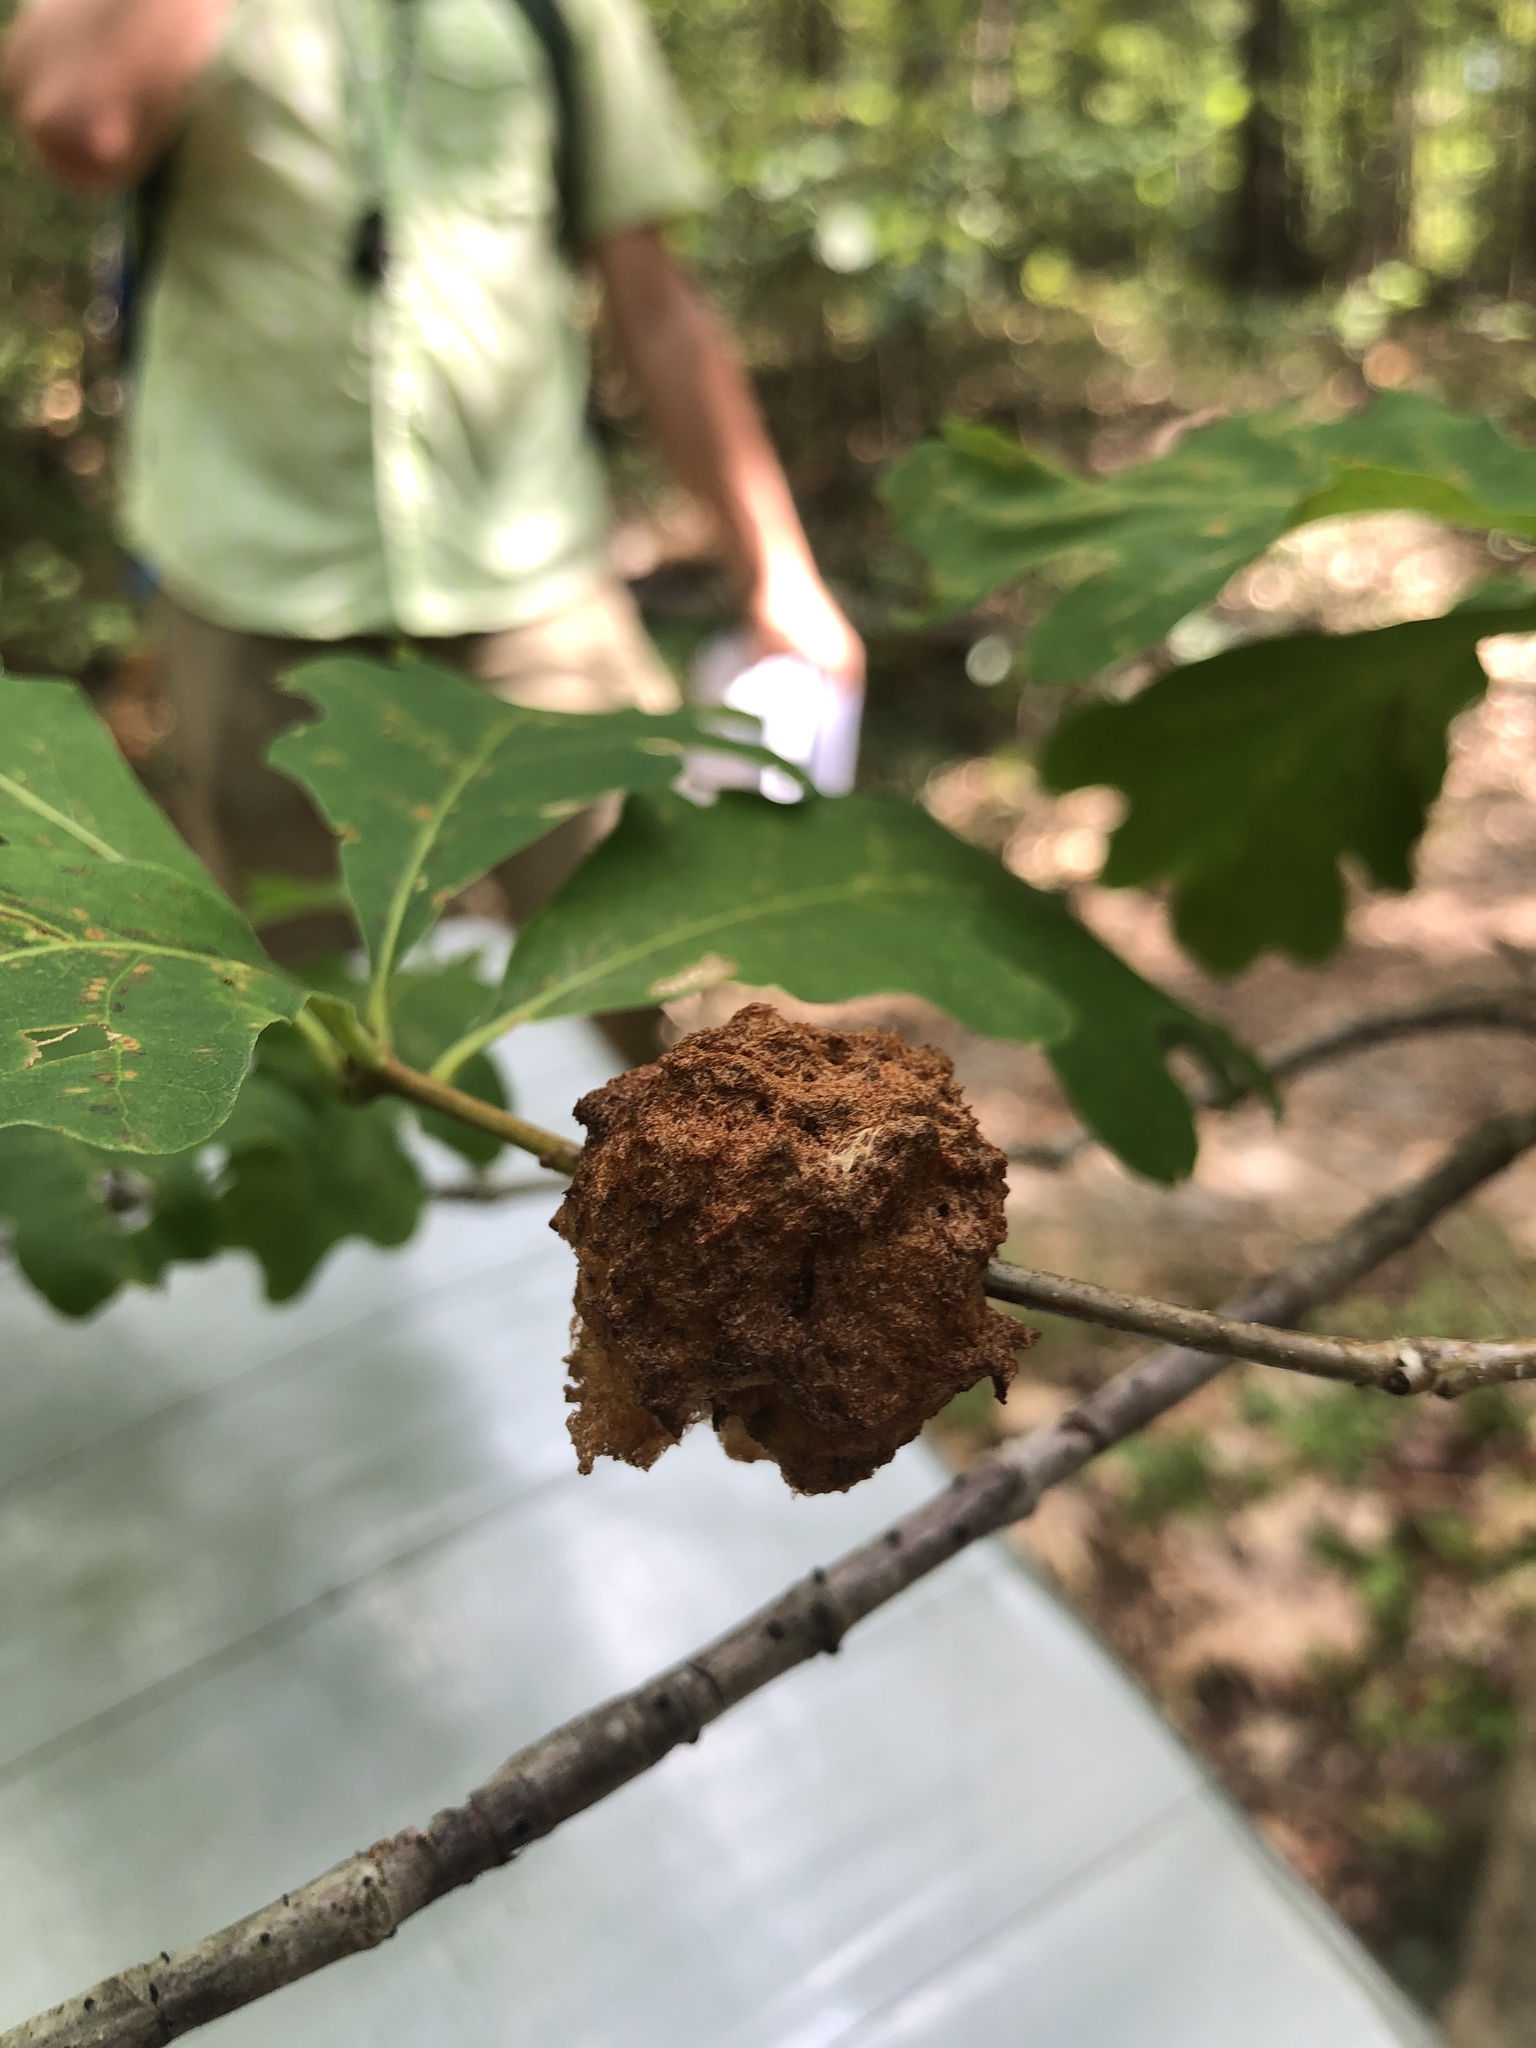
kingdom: Animalia
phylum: Arthropoda
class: Insecta
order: Hymenoptera
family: Cynipidae
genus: Callirhytis
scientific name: Callirhytis
